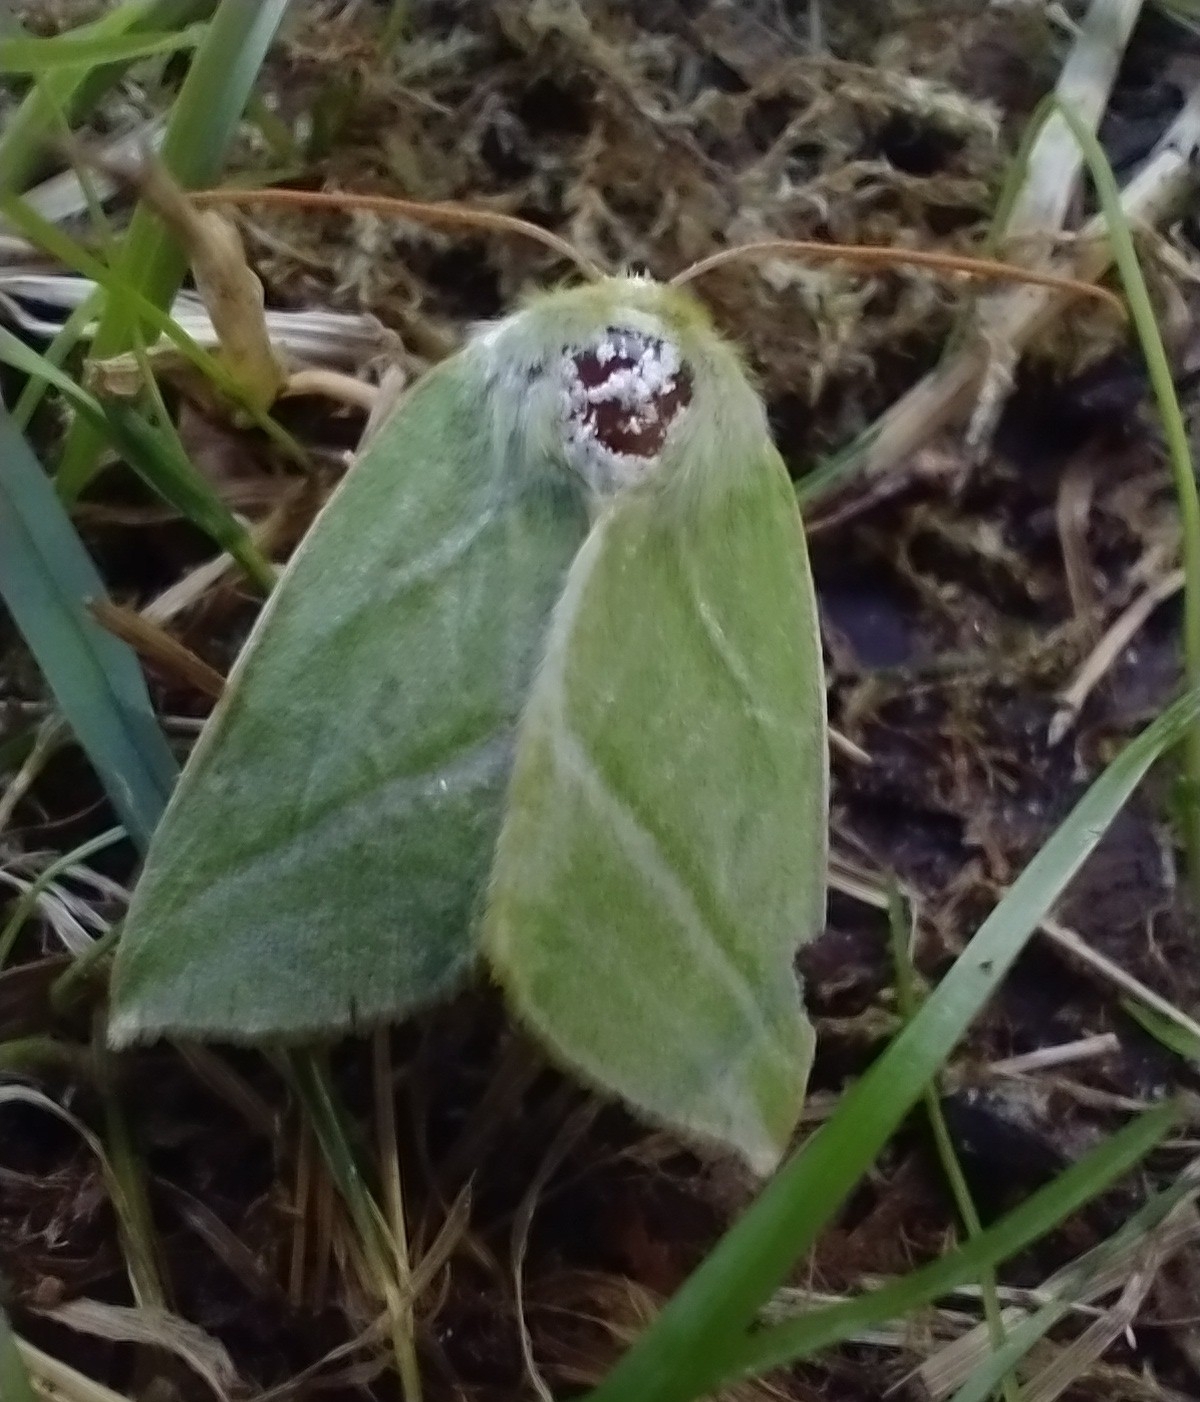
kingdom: Animalia
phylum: Arthropoda
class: Insecta
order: Lepidoptera
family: Nolidae
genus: Pseudoips
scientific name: Pseudoips prasinana
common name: Green silver-lines
